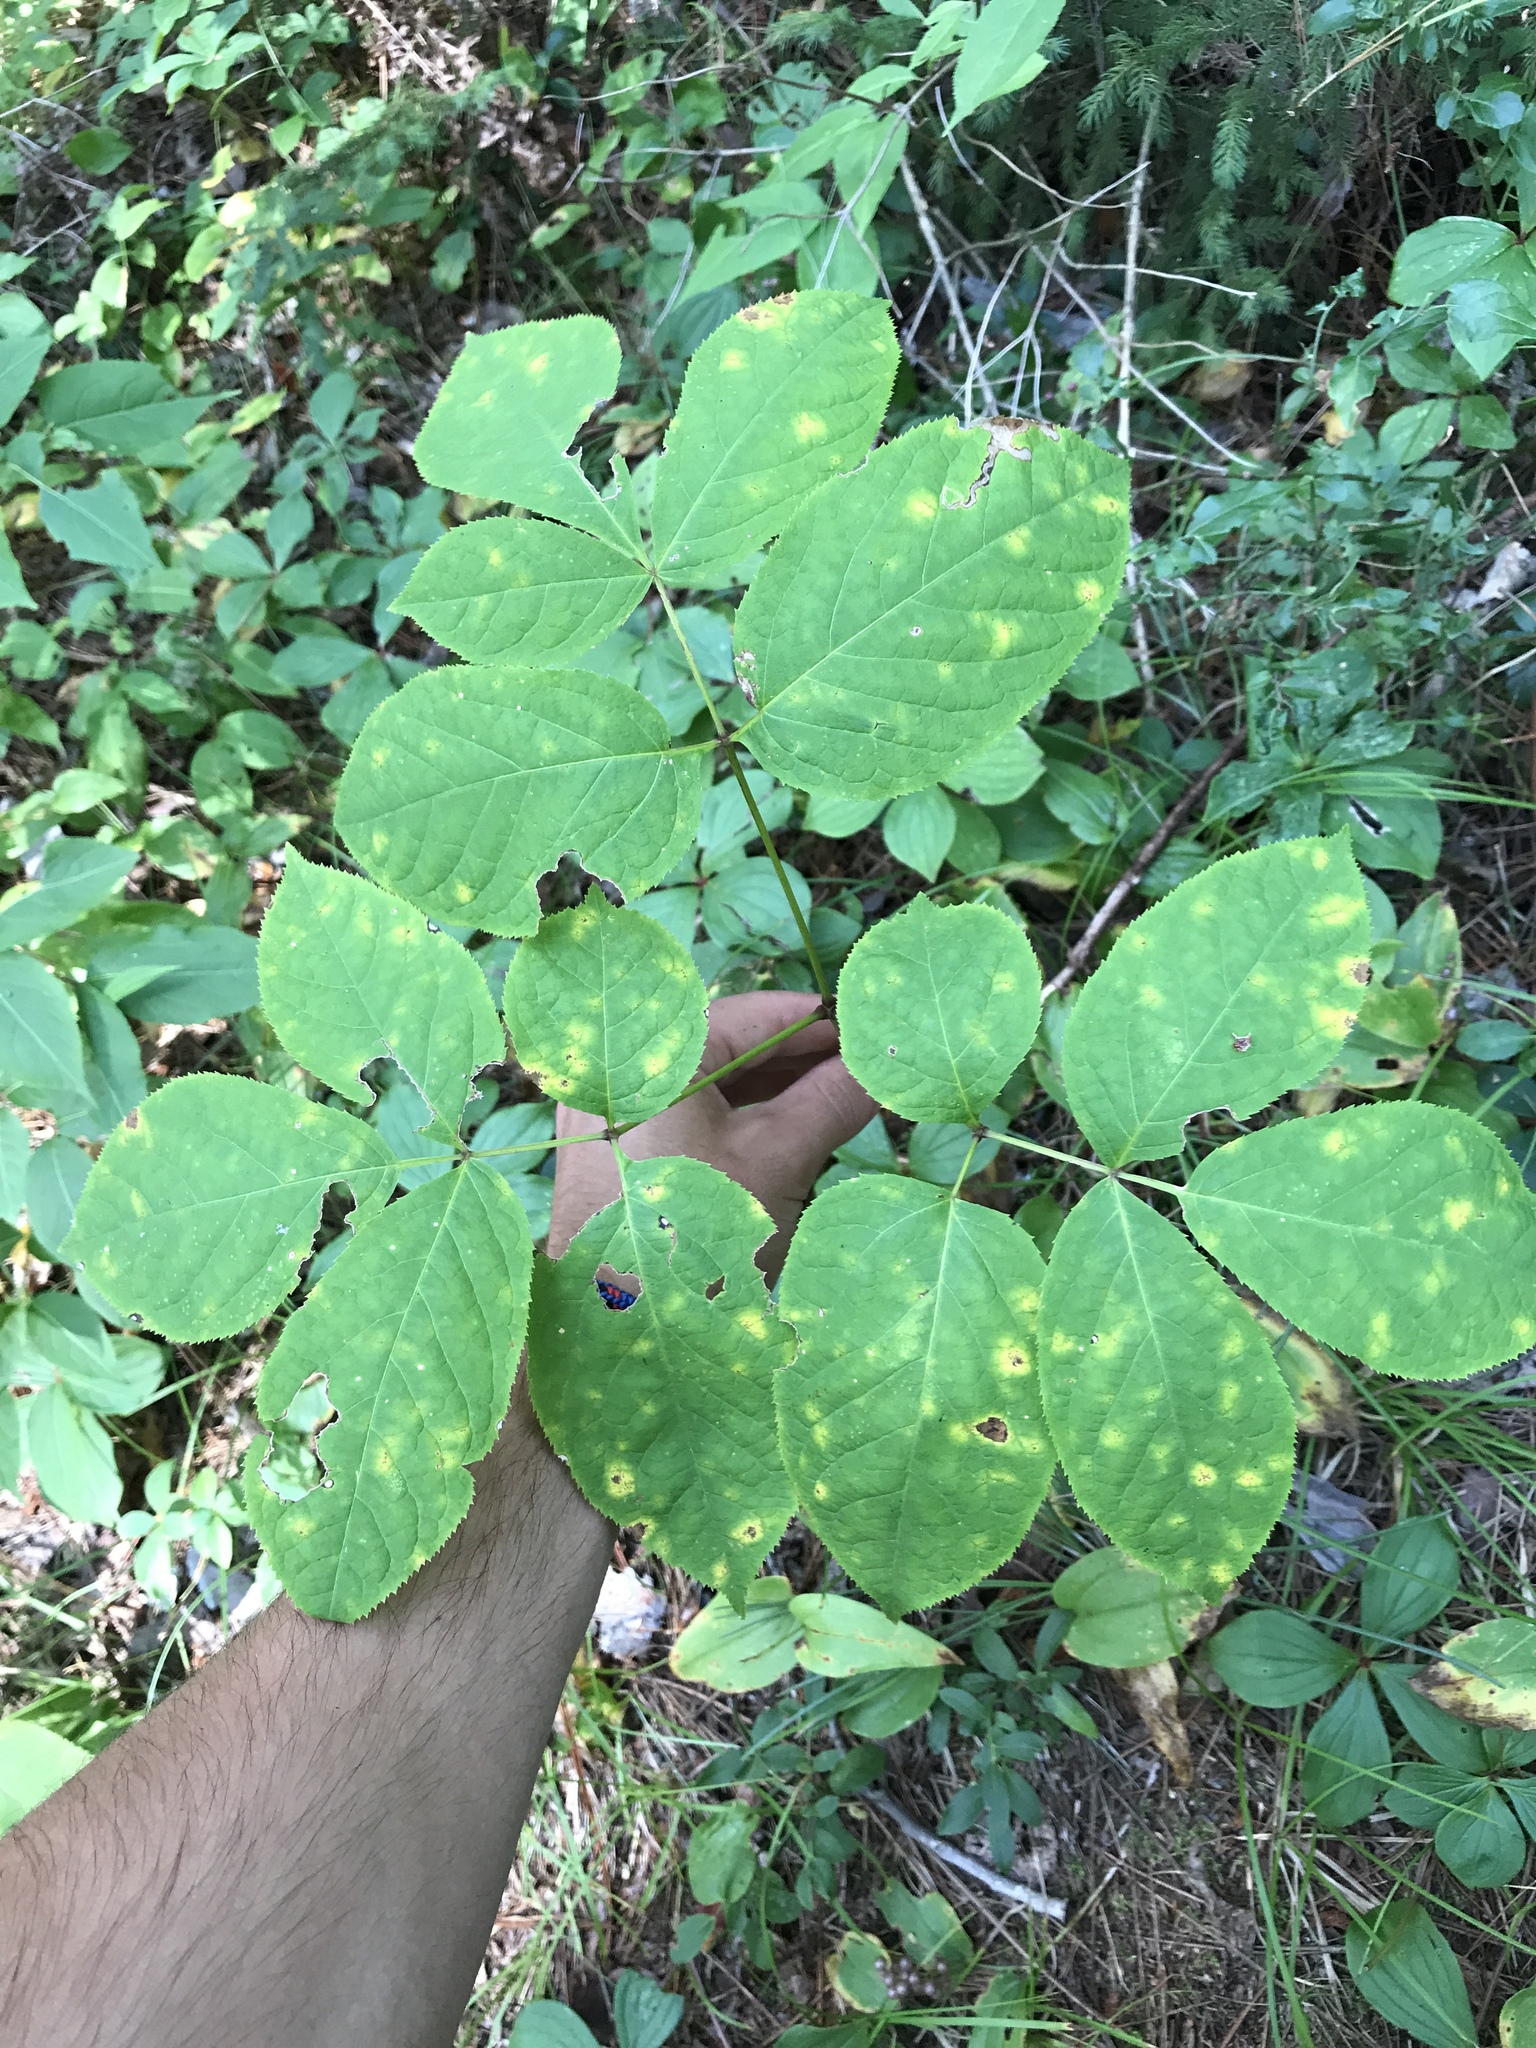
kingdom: Plantae
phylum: Tracheophyta
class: Magnoliopsida
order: Apiales
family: Araliaceae
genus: Aralia
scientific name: Aralia nudicaulis
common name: Wild sarsaparilla
